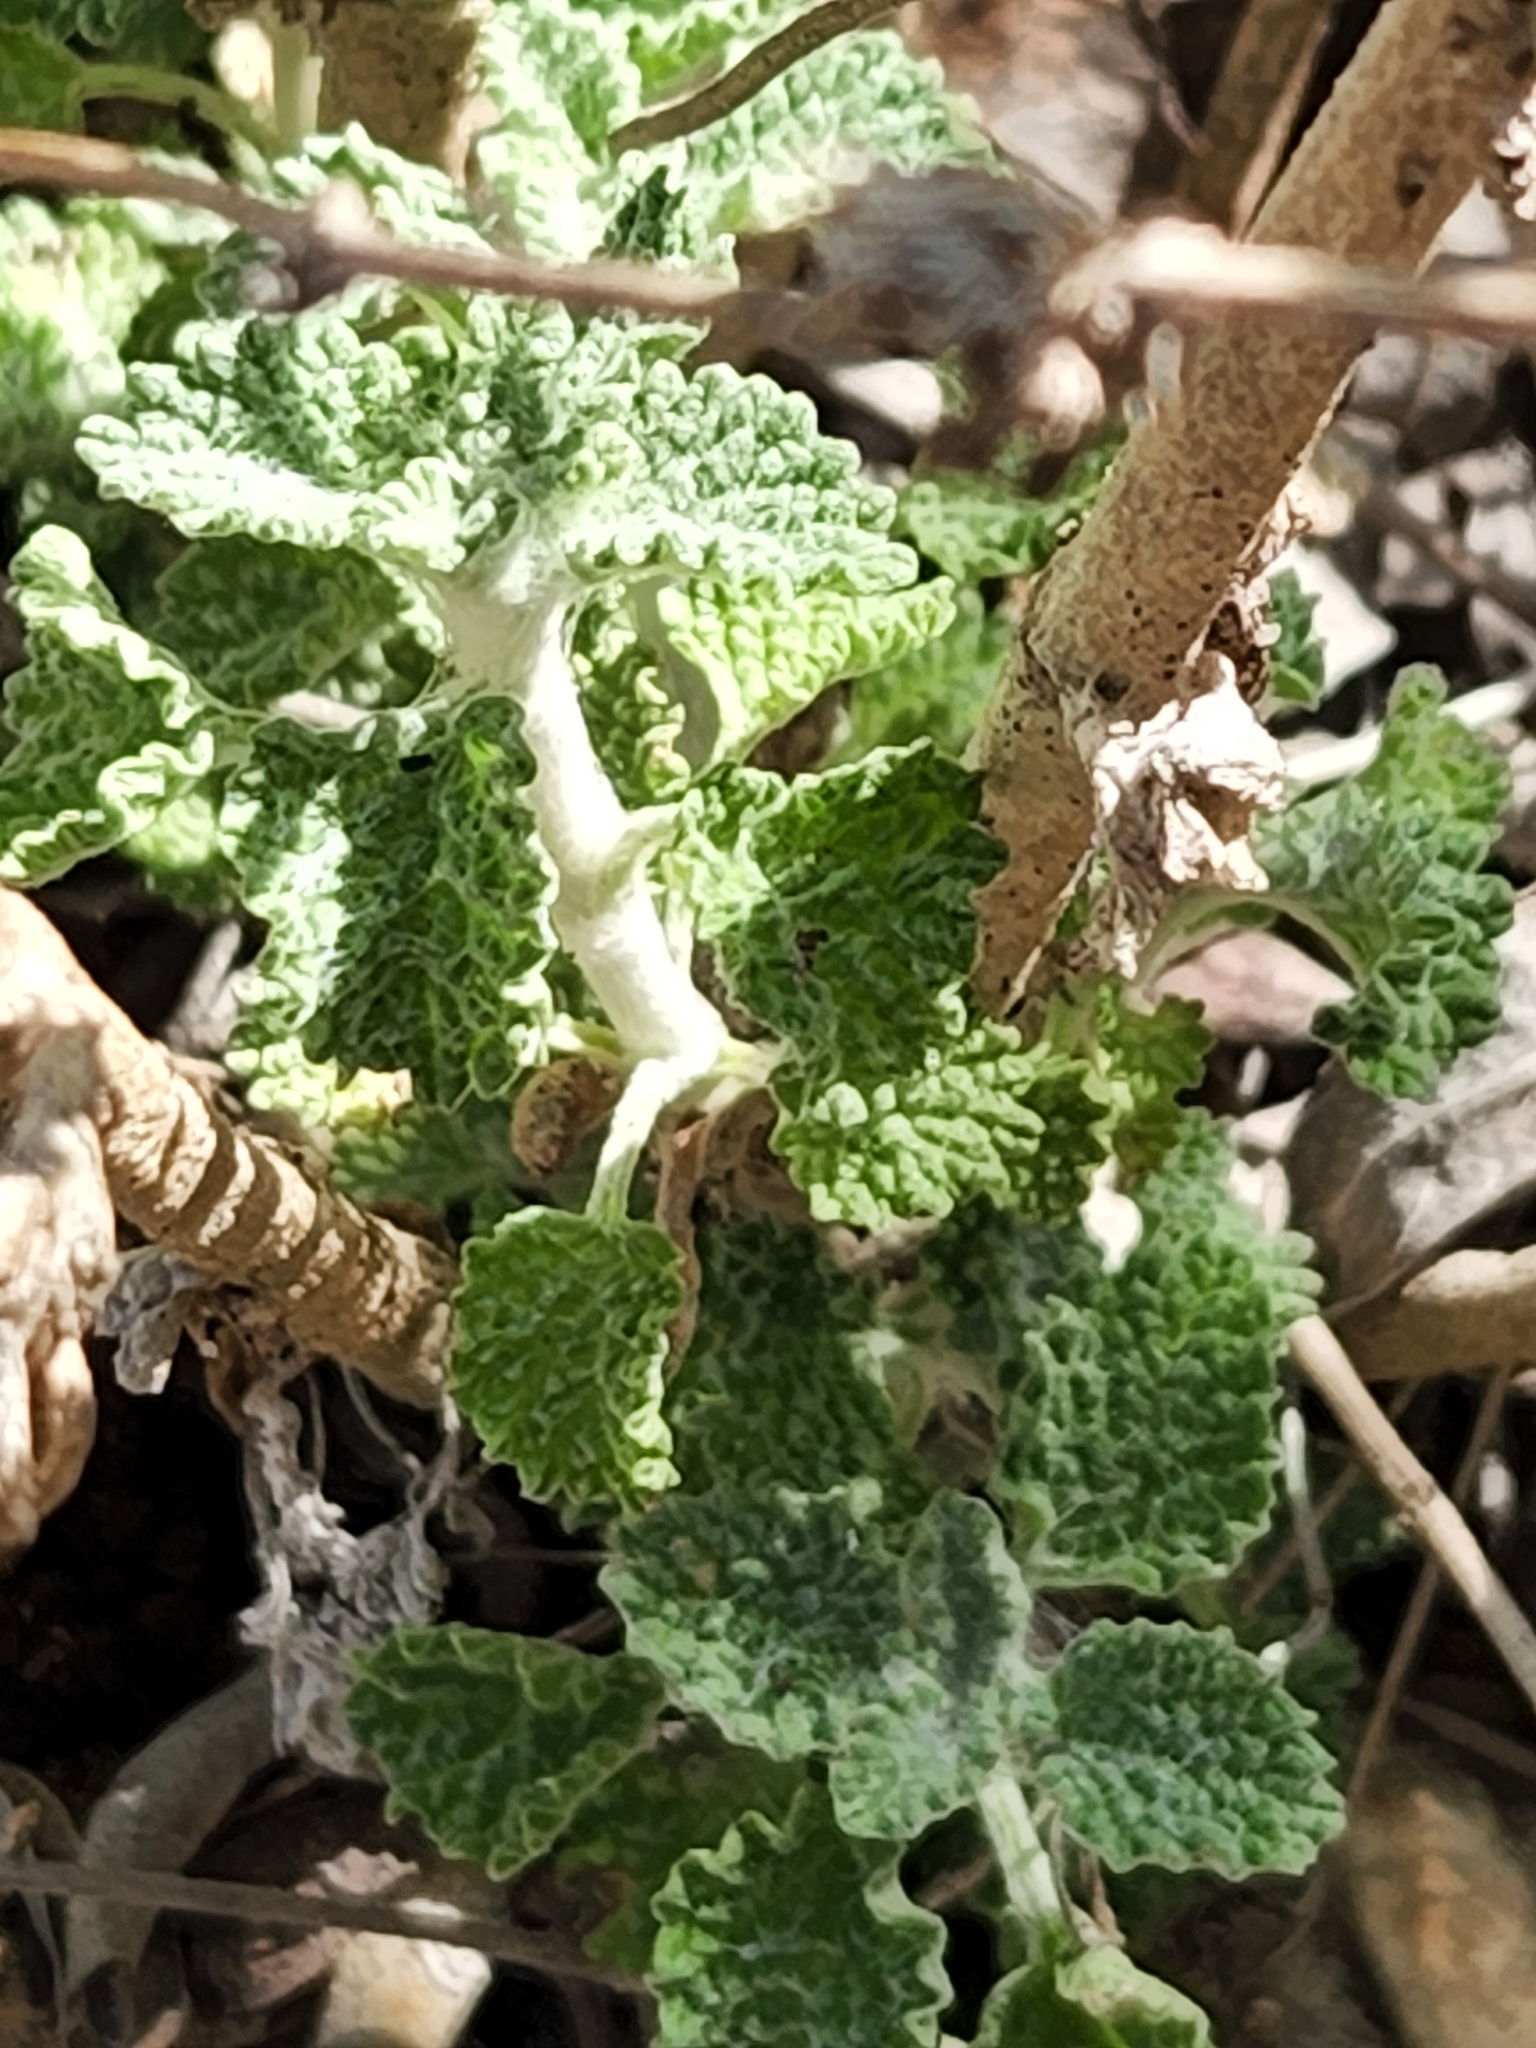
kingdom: Plantae
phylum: Tracheophyta
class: Magnoliopsida
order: Lamiales
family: Lamiaceae
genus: Marrubium
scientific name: Marrubium vulgare
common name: Horehound
